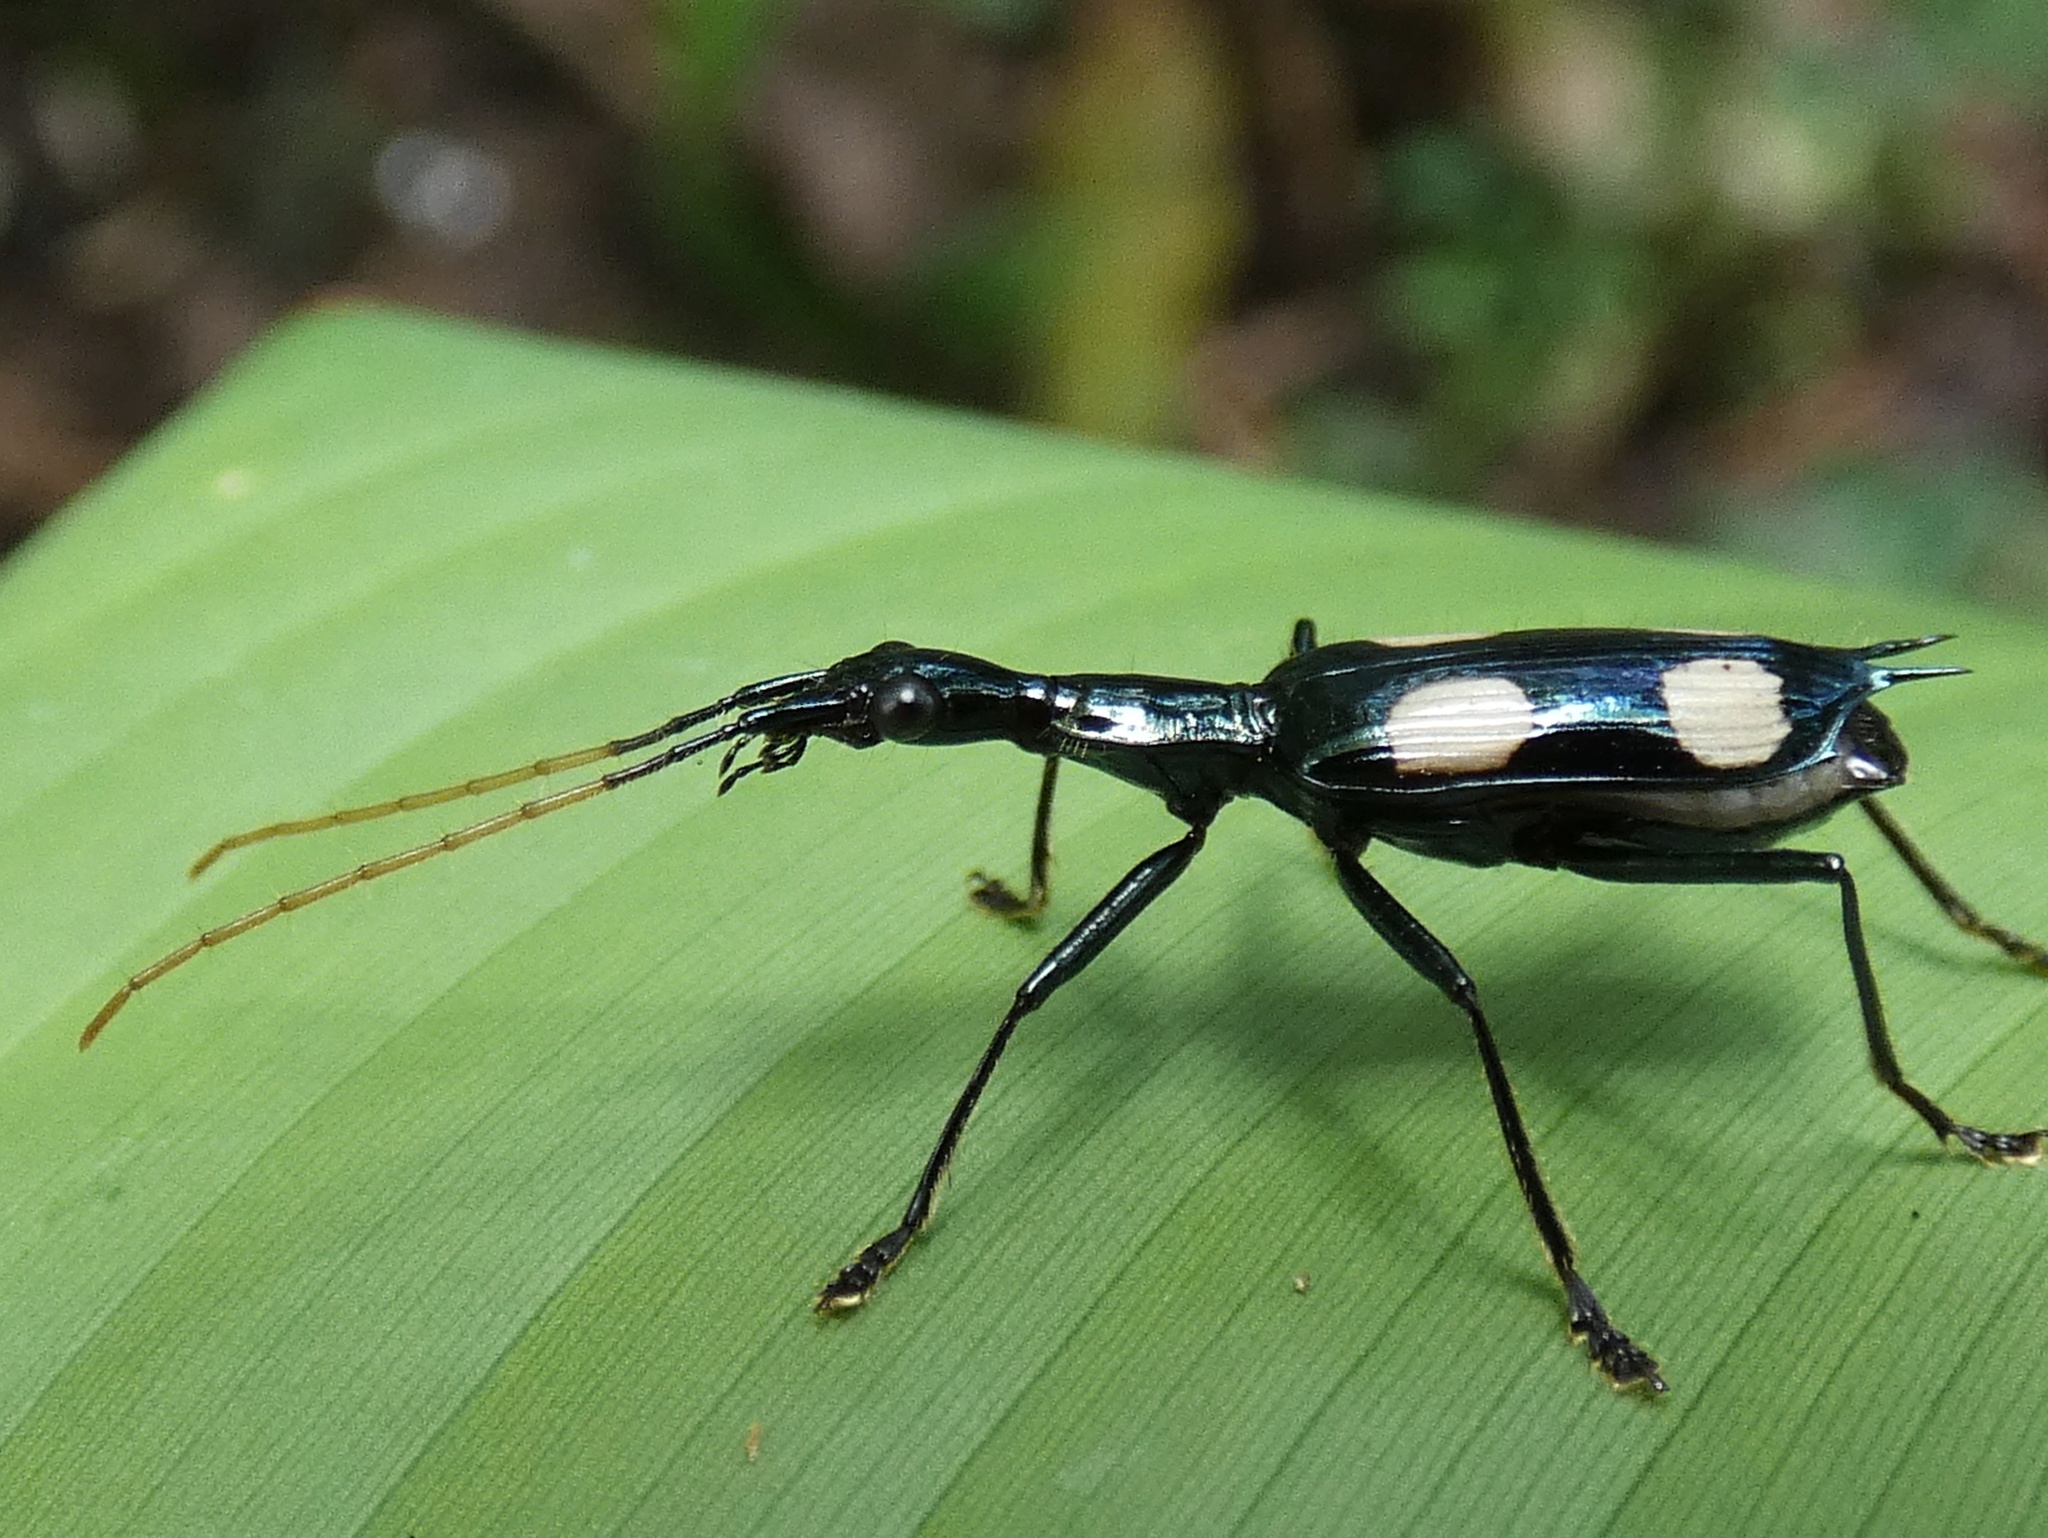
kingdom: Animalia
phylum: Arthropoda
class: Insecta
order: Coleoptera
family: Carabidae
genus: Calophaena
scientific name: Calophaena laevigata
